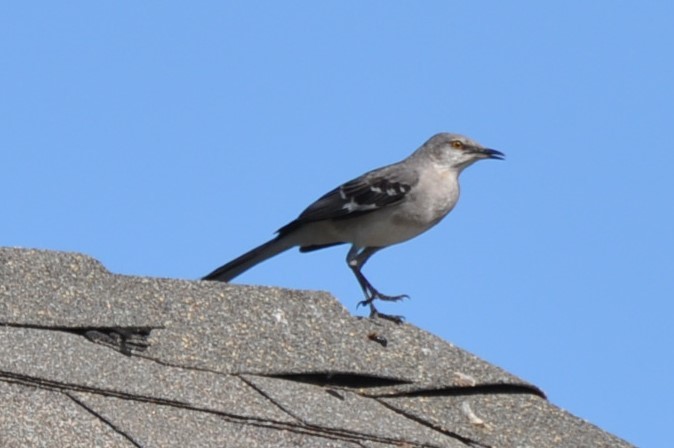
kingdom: Animalia
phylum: Chordata
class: Aves
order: Passeriformes
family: Mimidae
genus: Mimus
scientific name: Mimus polyglottos
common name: Northern mockingbird
